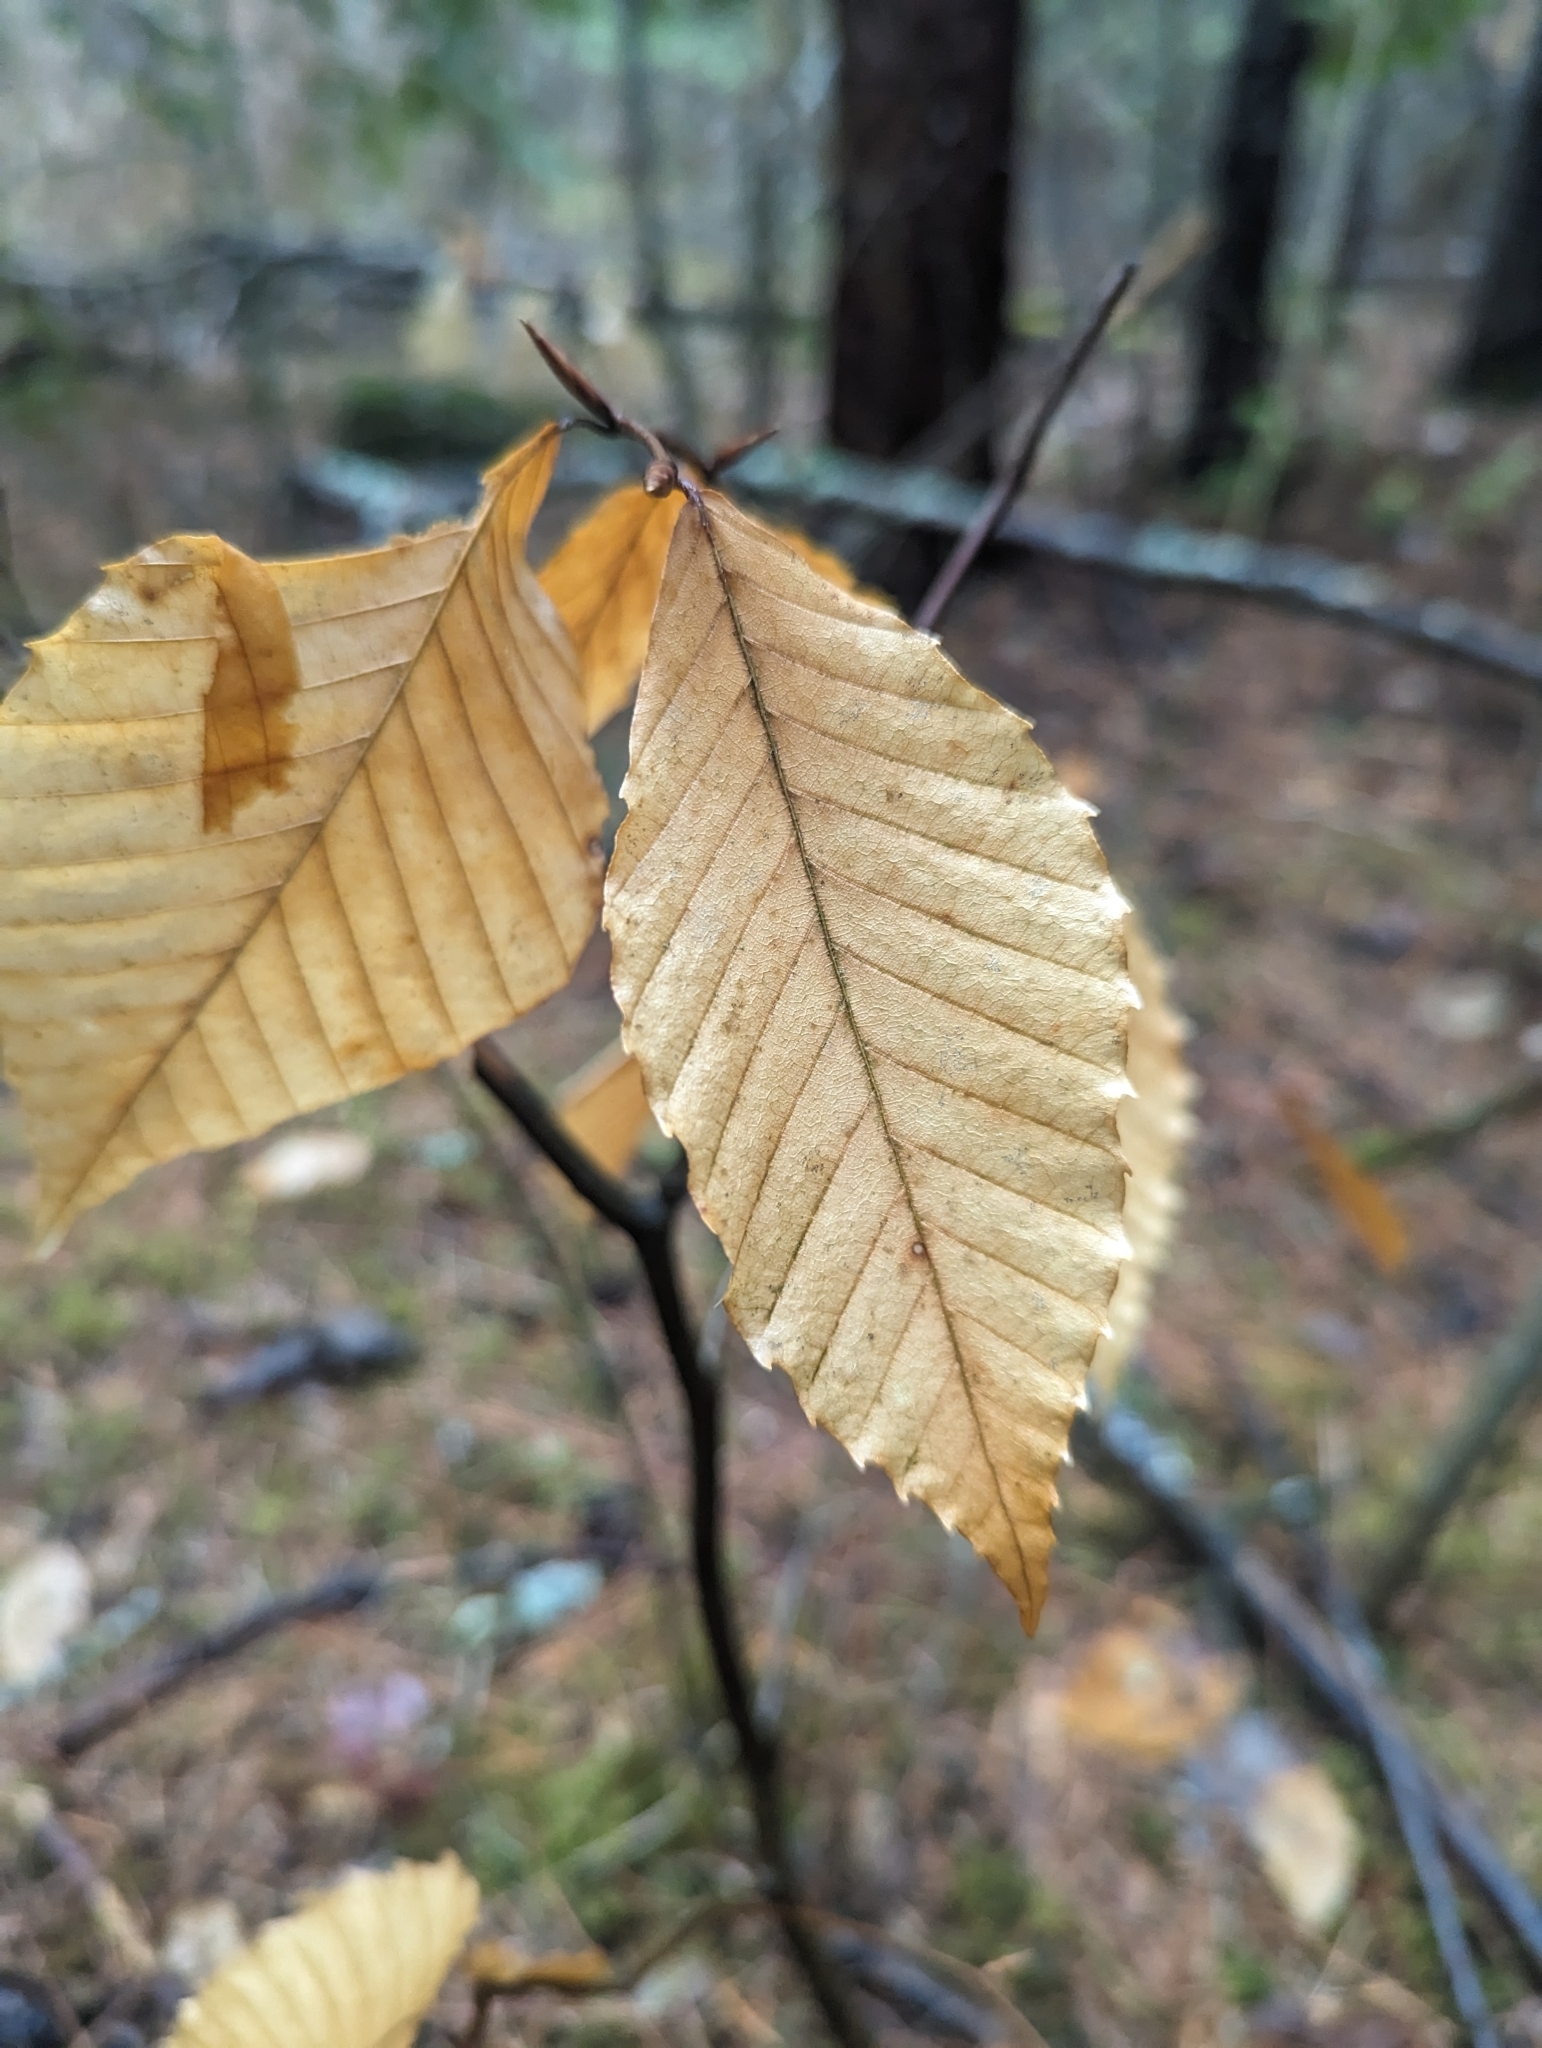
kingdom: Plantae
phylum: Tracheophyta
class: Magnoliopsida
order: Fagales
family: Fagaceae
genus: Fagus
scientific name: Fagus grandifolia
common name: American beech
